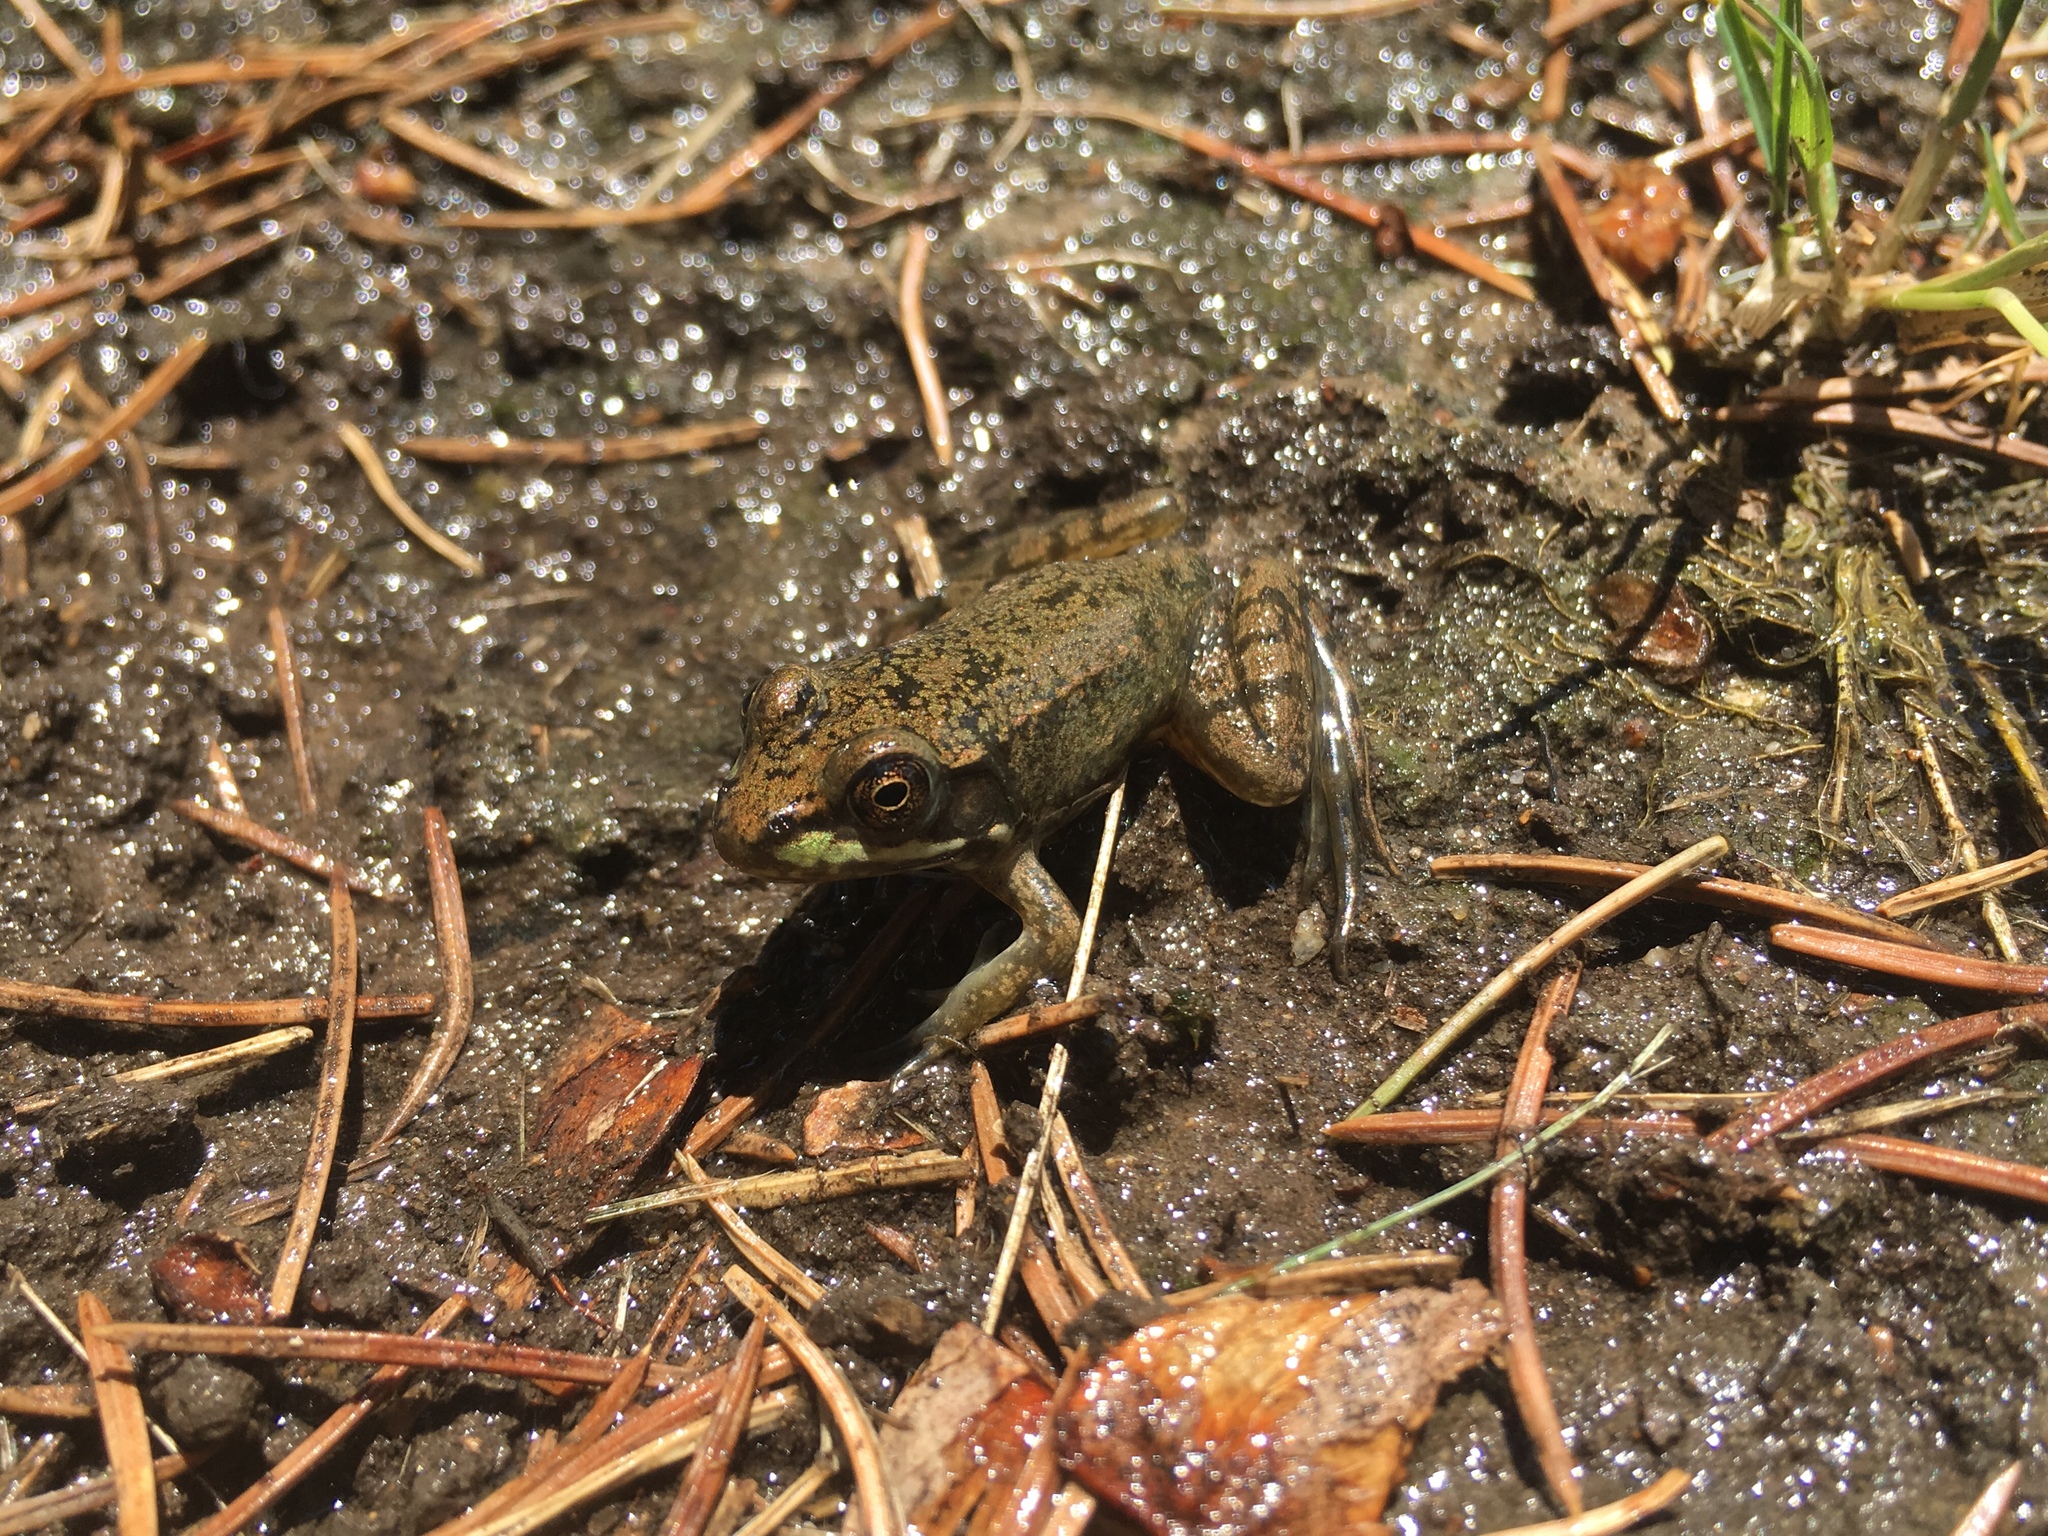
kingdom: Animalia
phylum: Chordata
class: Amphibia
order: Anura
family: Ranidae
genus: Lithobates
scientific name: Lithobates clamitans
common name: Green frog
